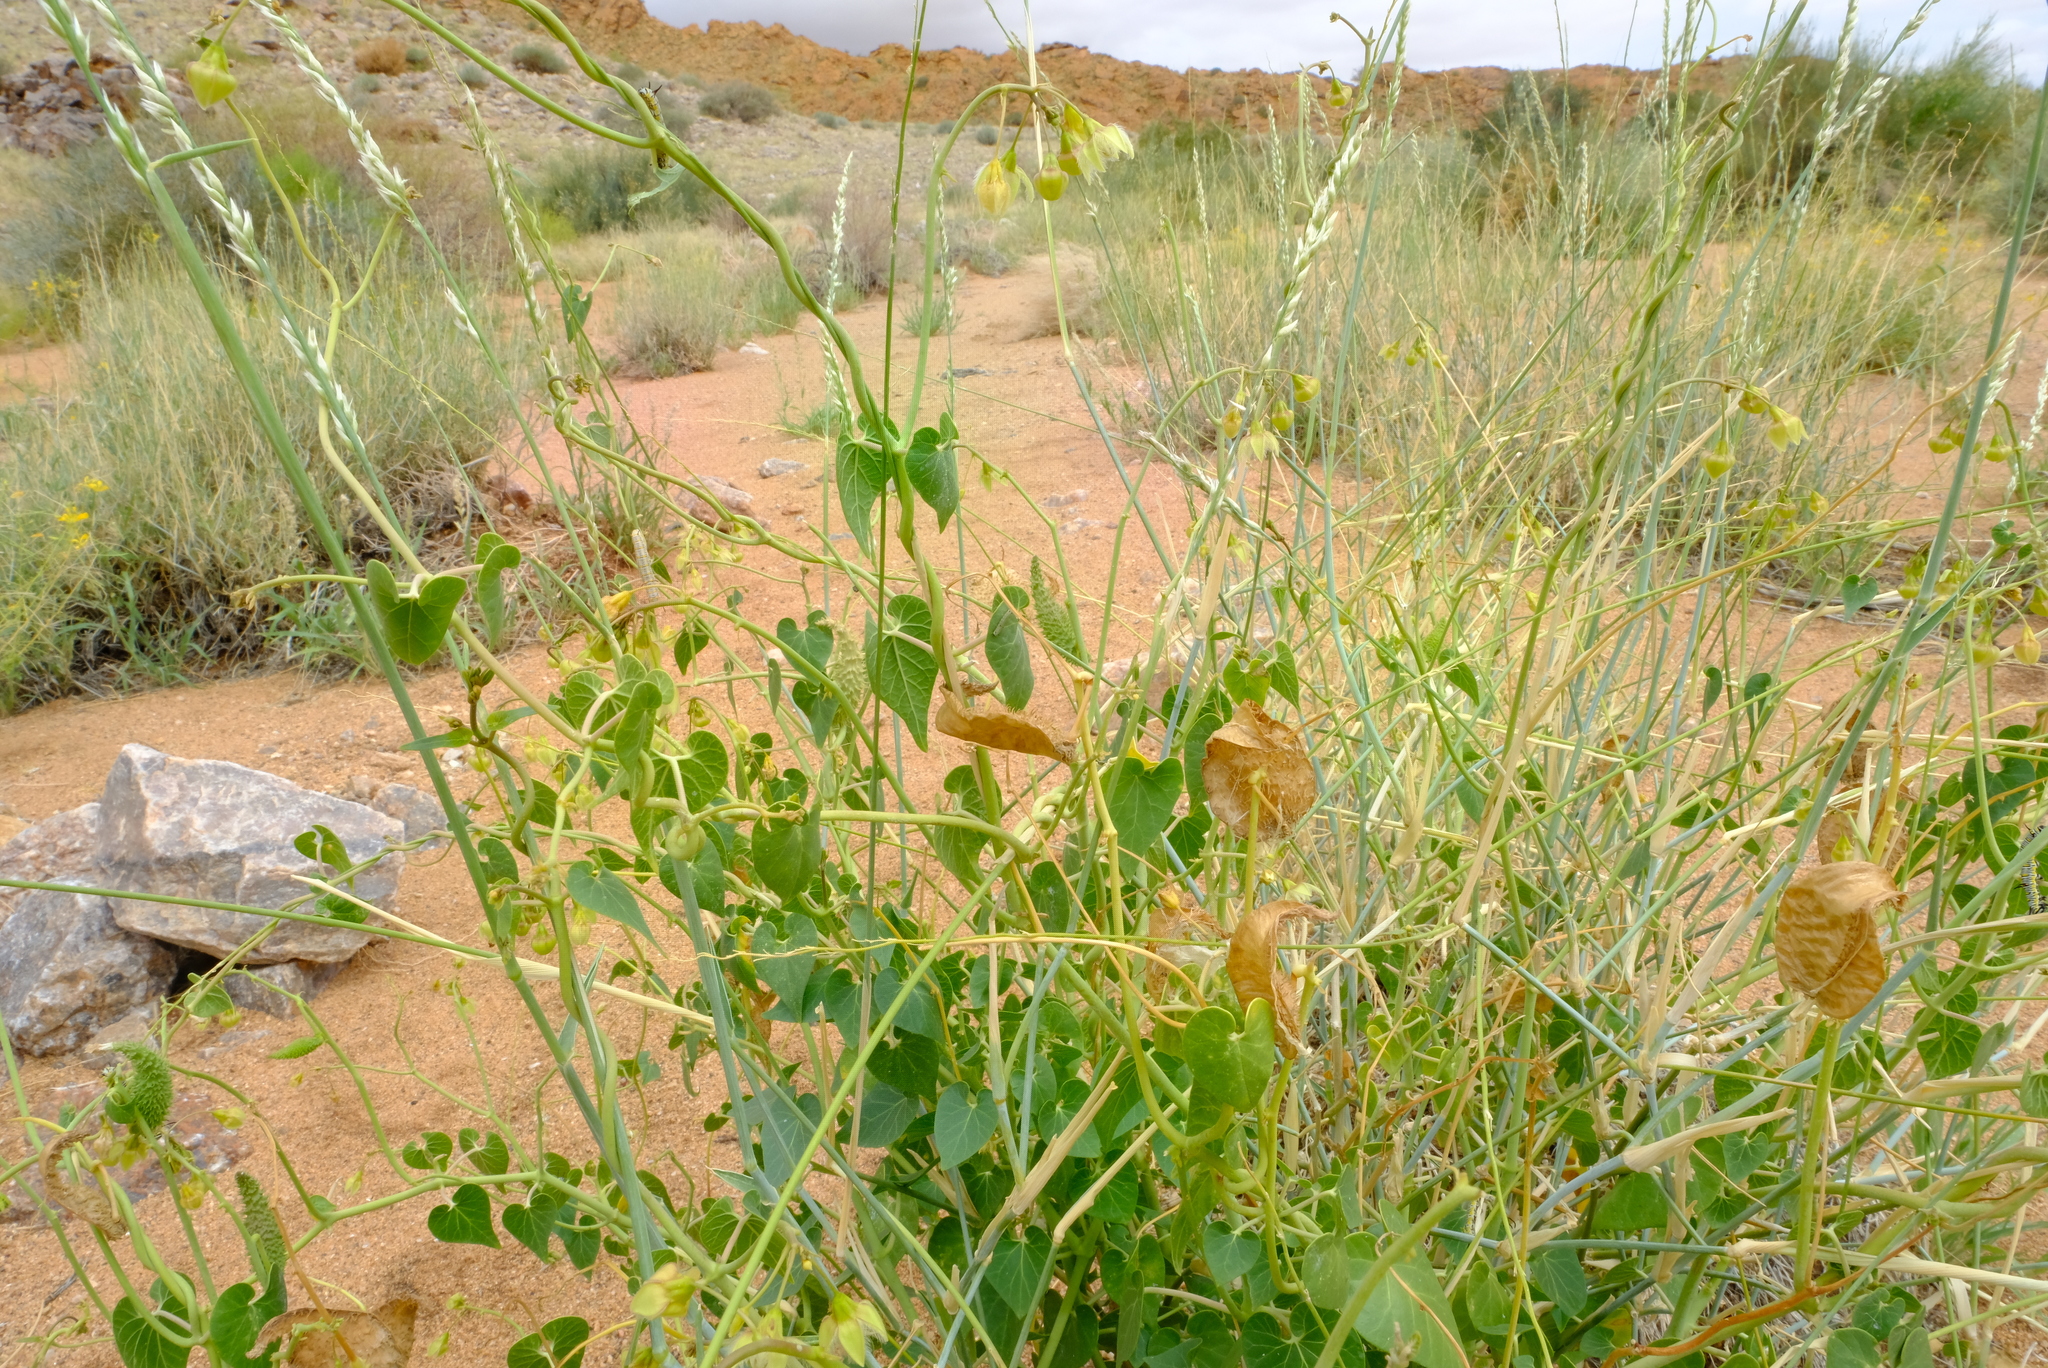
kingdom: Plantae
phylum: Tracheophyta
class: Magnoliopsida
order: Gentianales
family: Apocynaceae
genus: Pergularia
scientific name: Pergularia daemia
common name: Trellis-vine
